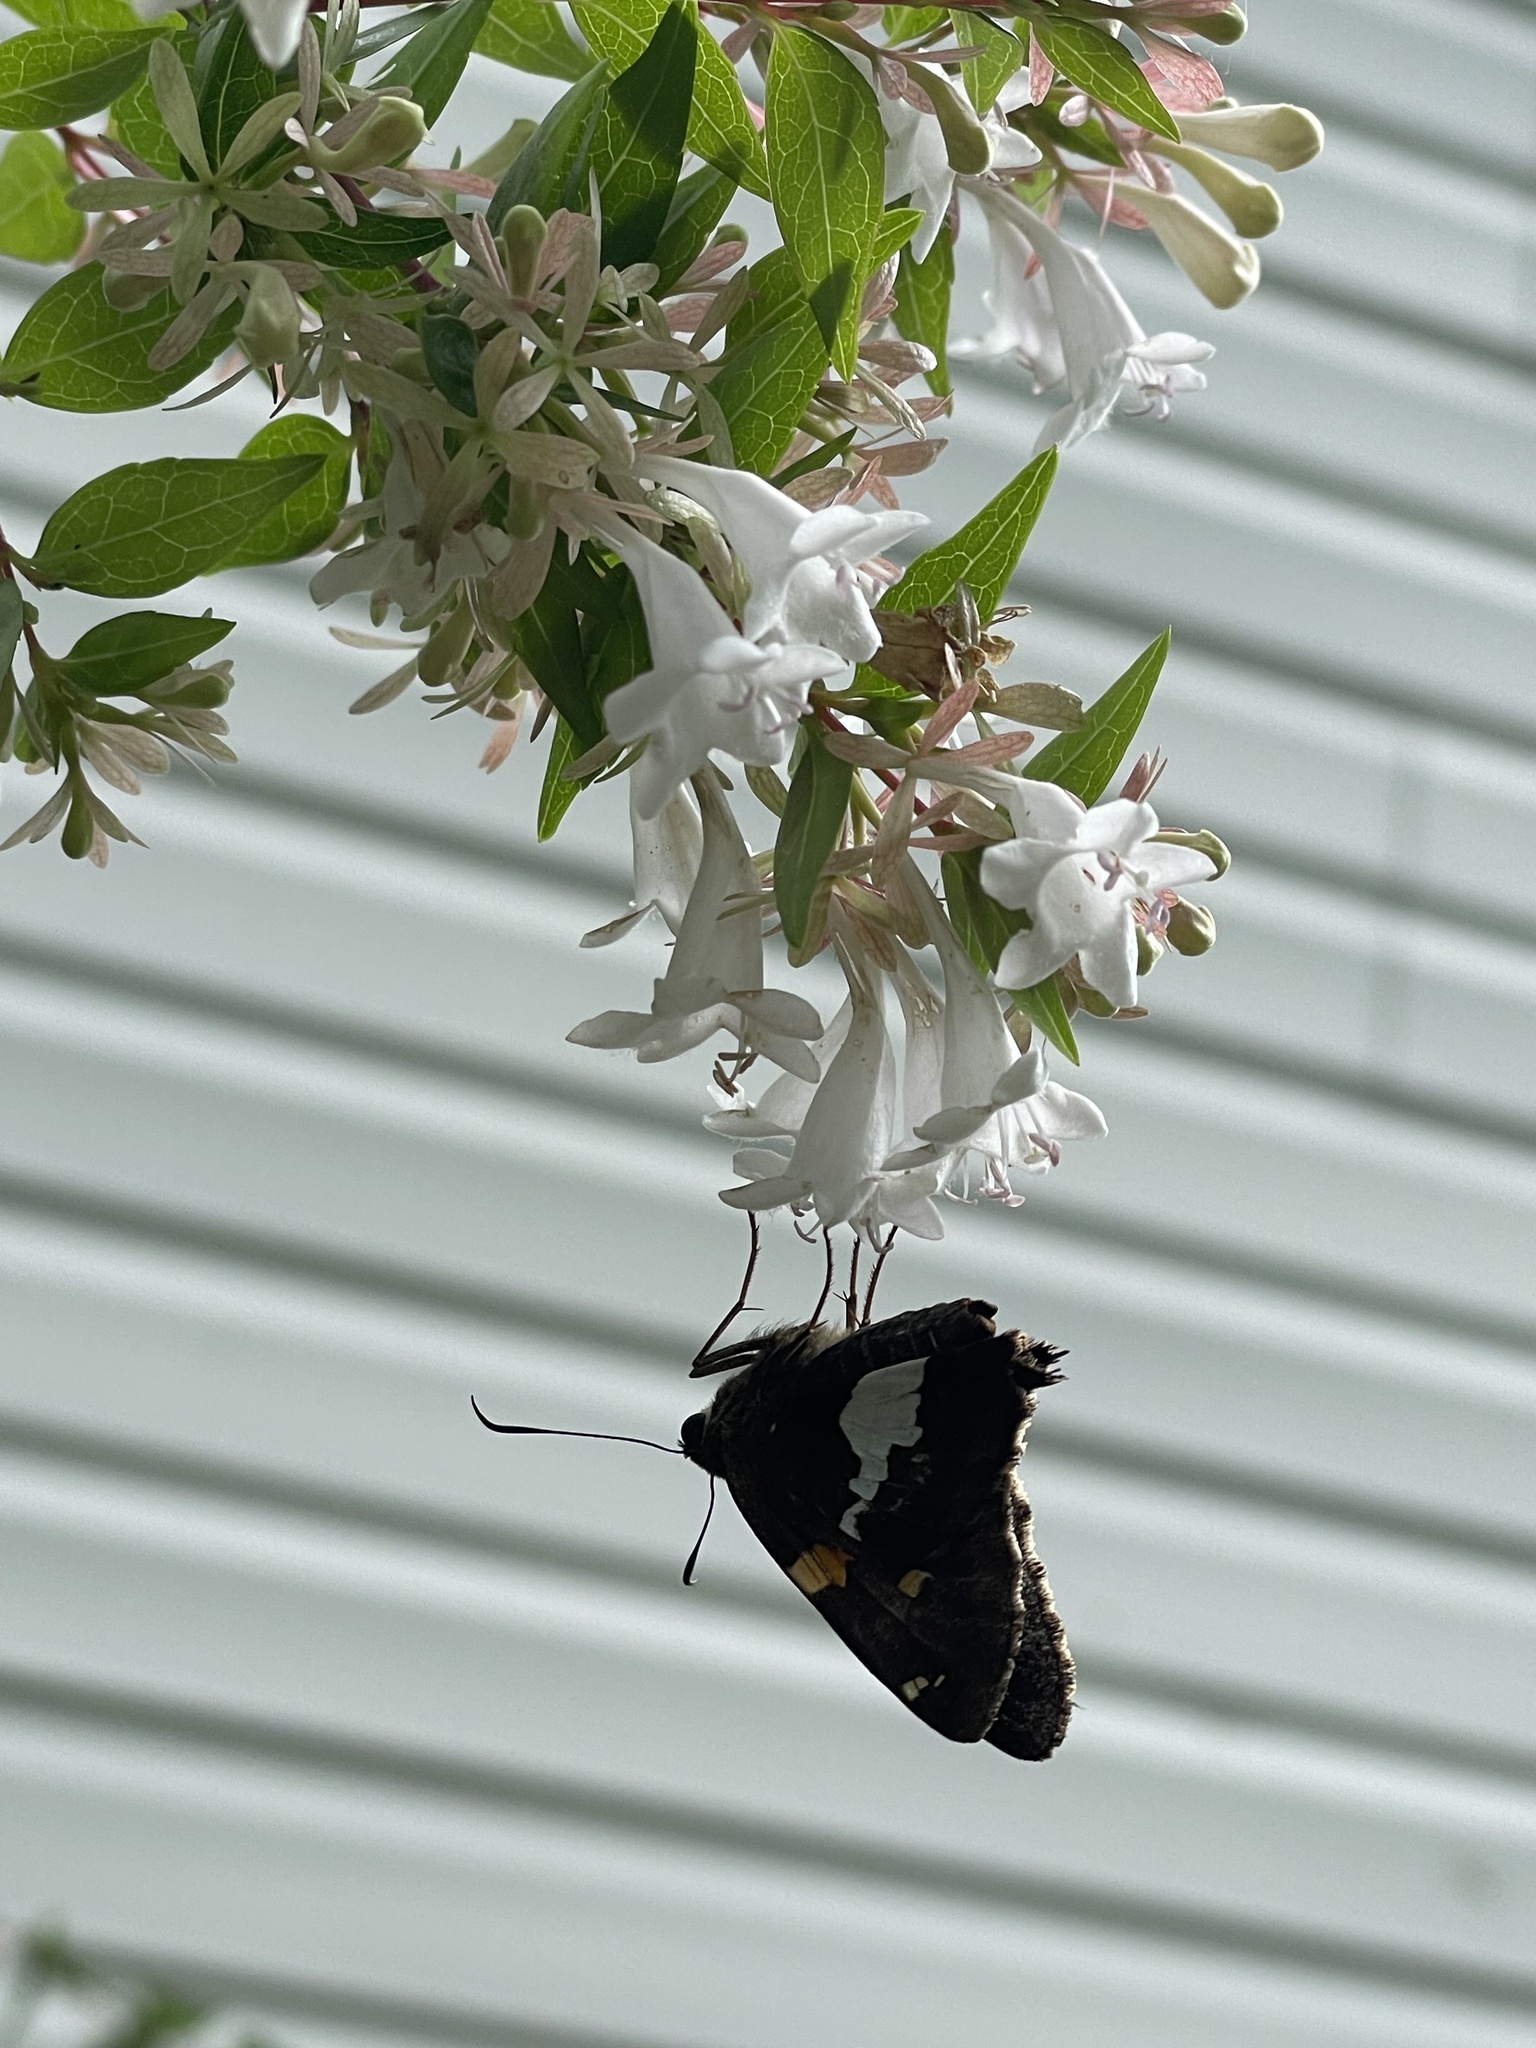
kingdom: Animalia
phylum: Arthropoda
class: Insecta
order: Lepidoptera
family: Hesperiidae
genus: Epargyreus
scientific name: Epargyreus clarus
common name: Silver-spotted skipper
